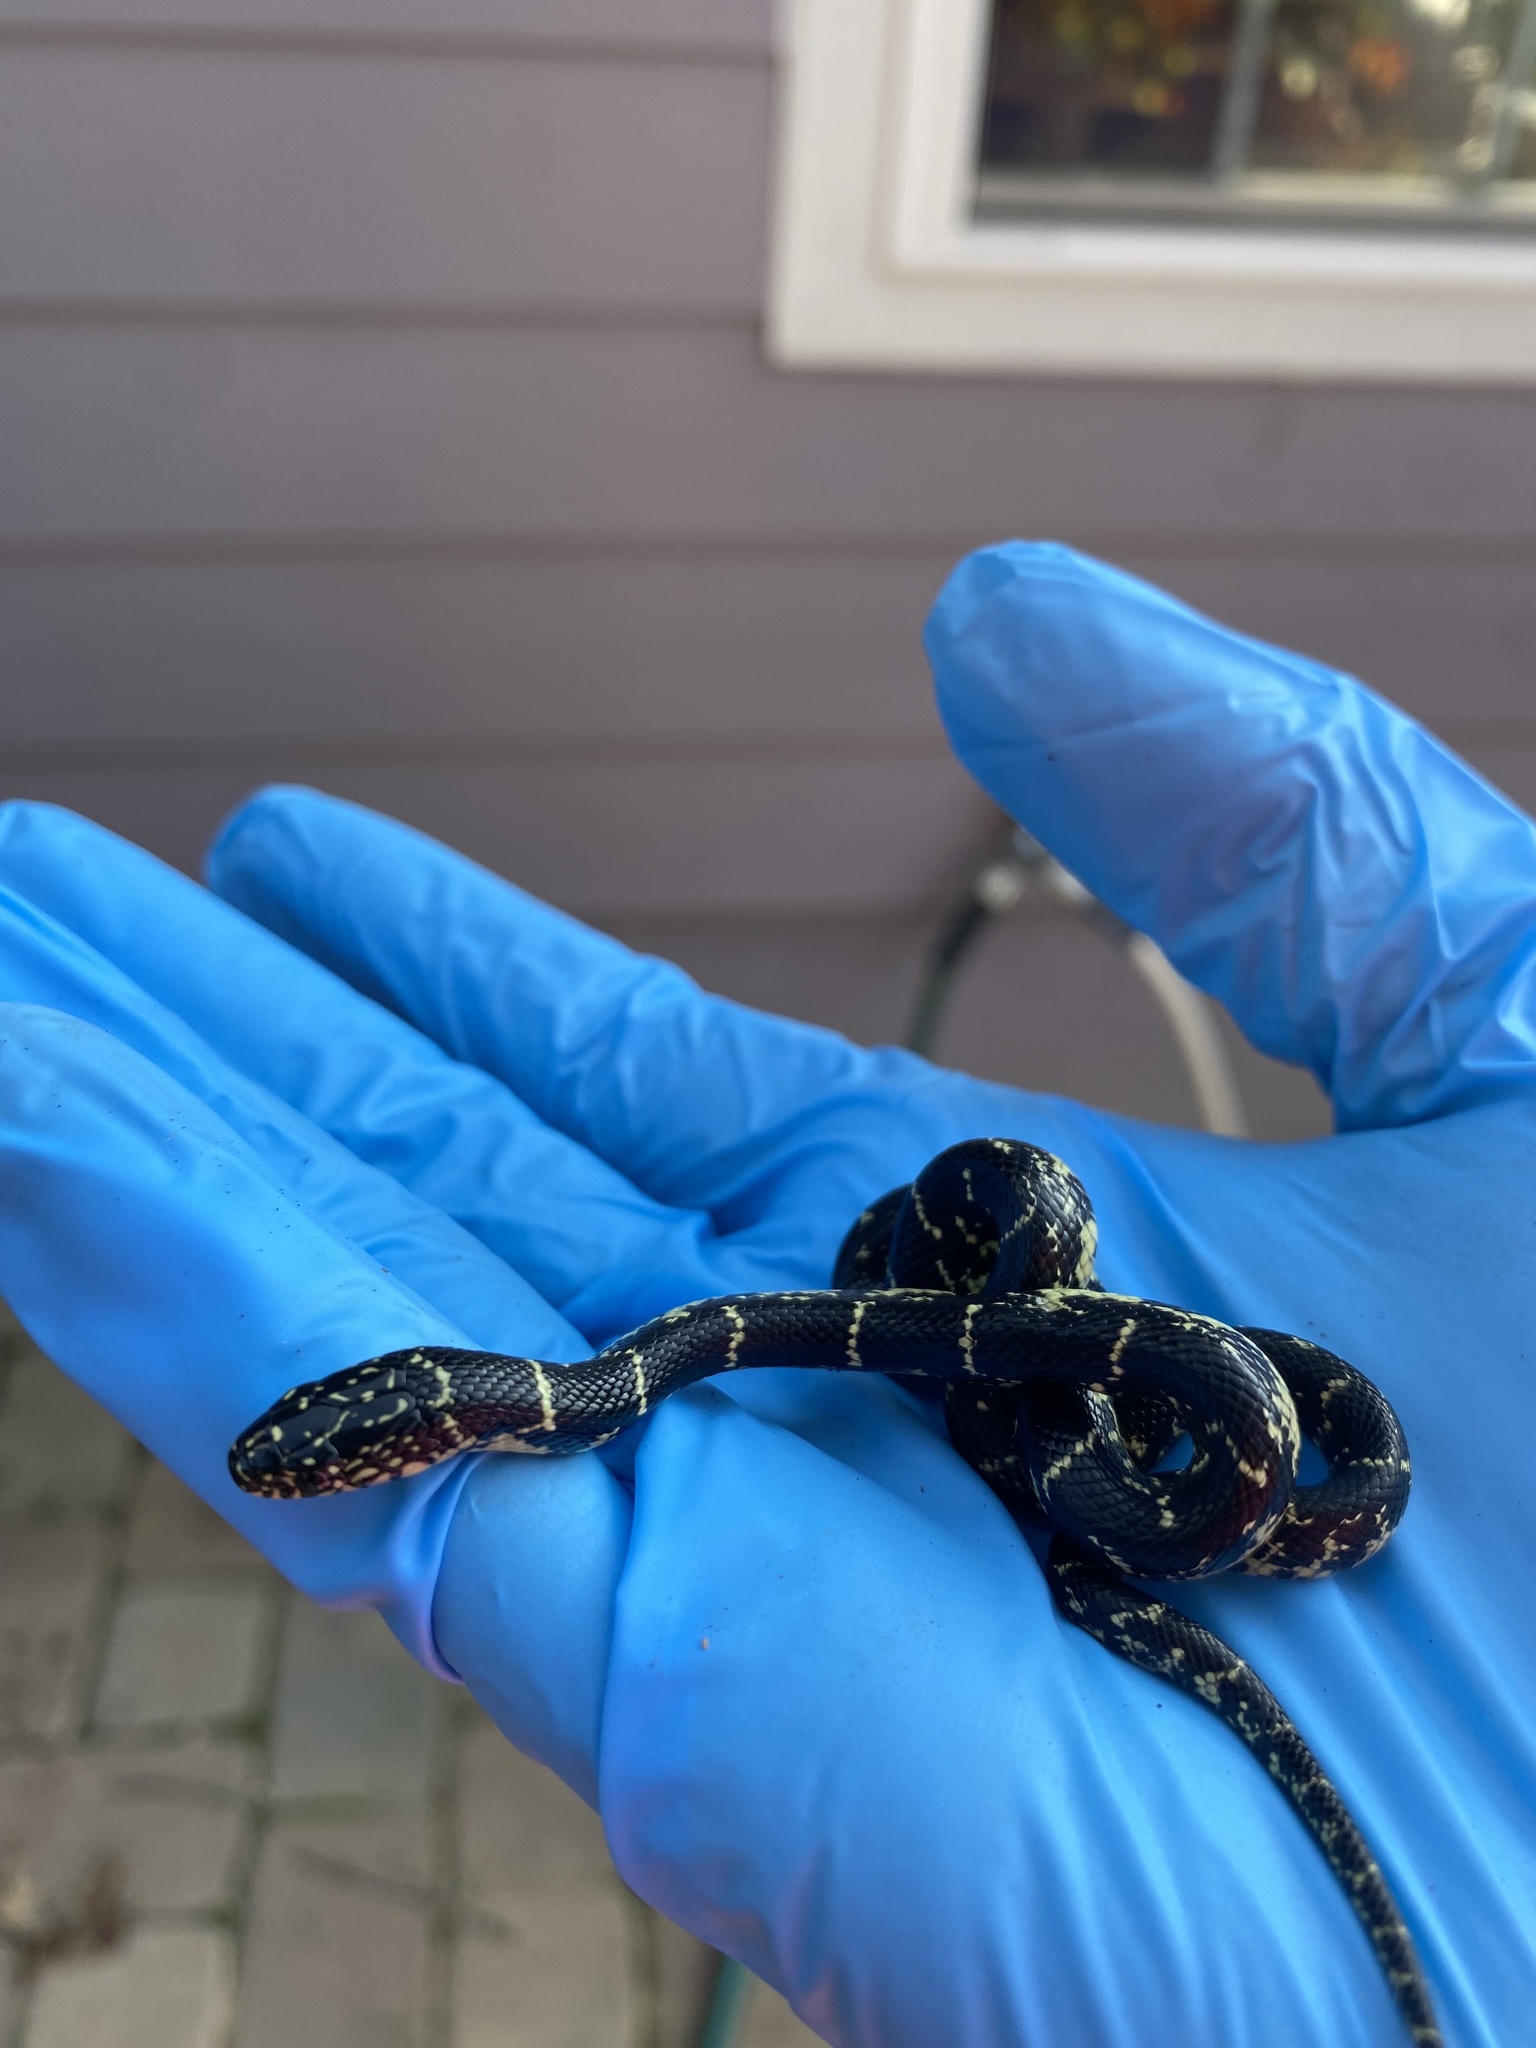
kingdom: Animalia
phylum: Chordata
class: Squamata
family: Colubridae
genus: Lampropeltis
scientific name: Lampropeltis nigra
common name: Black kingsnake
